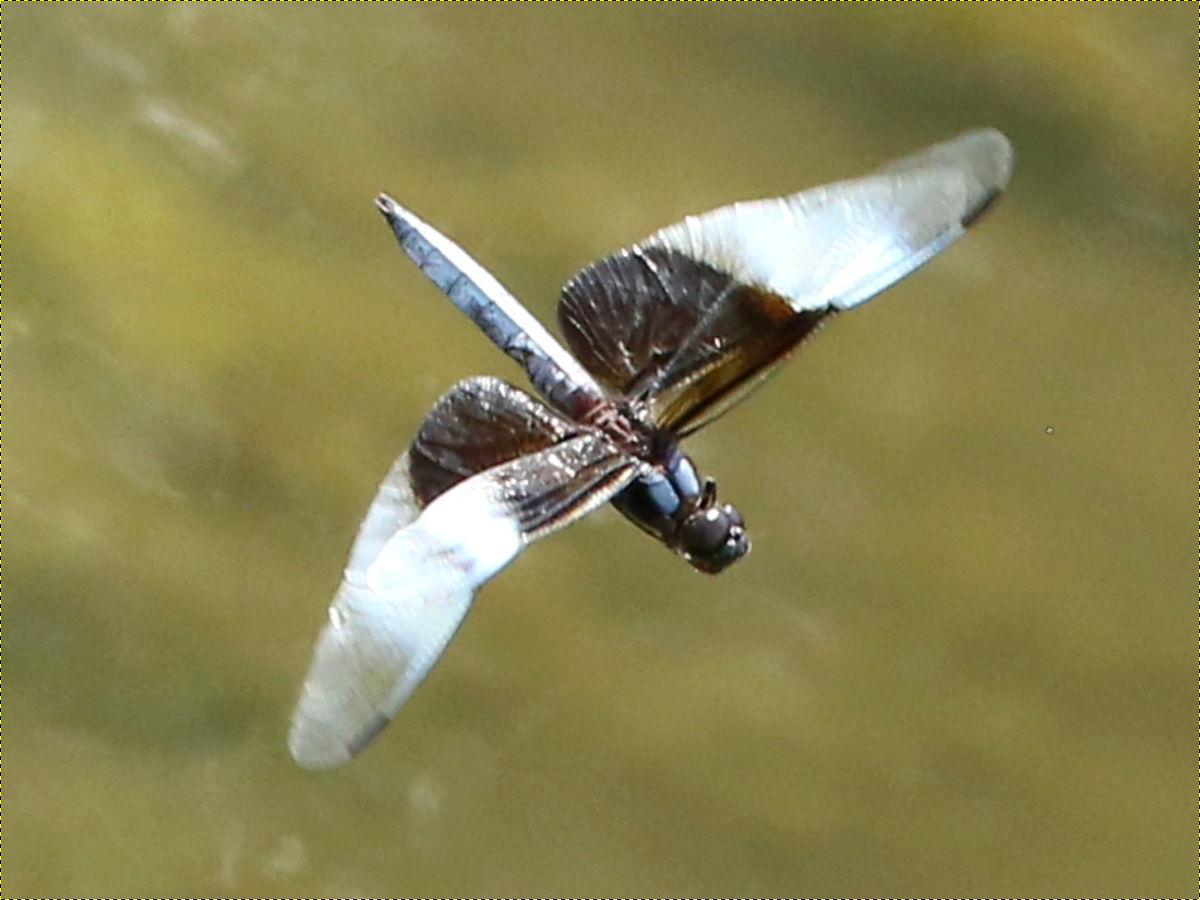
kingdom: Animalia
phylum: Arthropoda
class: Insecta
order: Odonata
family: Libellulidae
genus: Libellula
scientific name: Libellula luctuosa
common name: Widow skimmer
